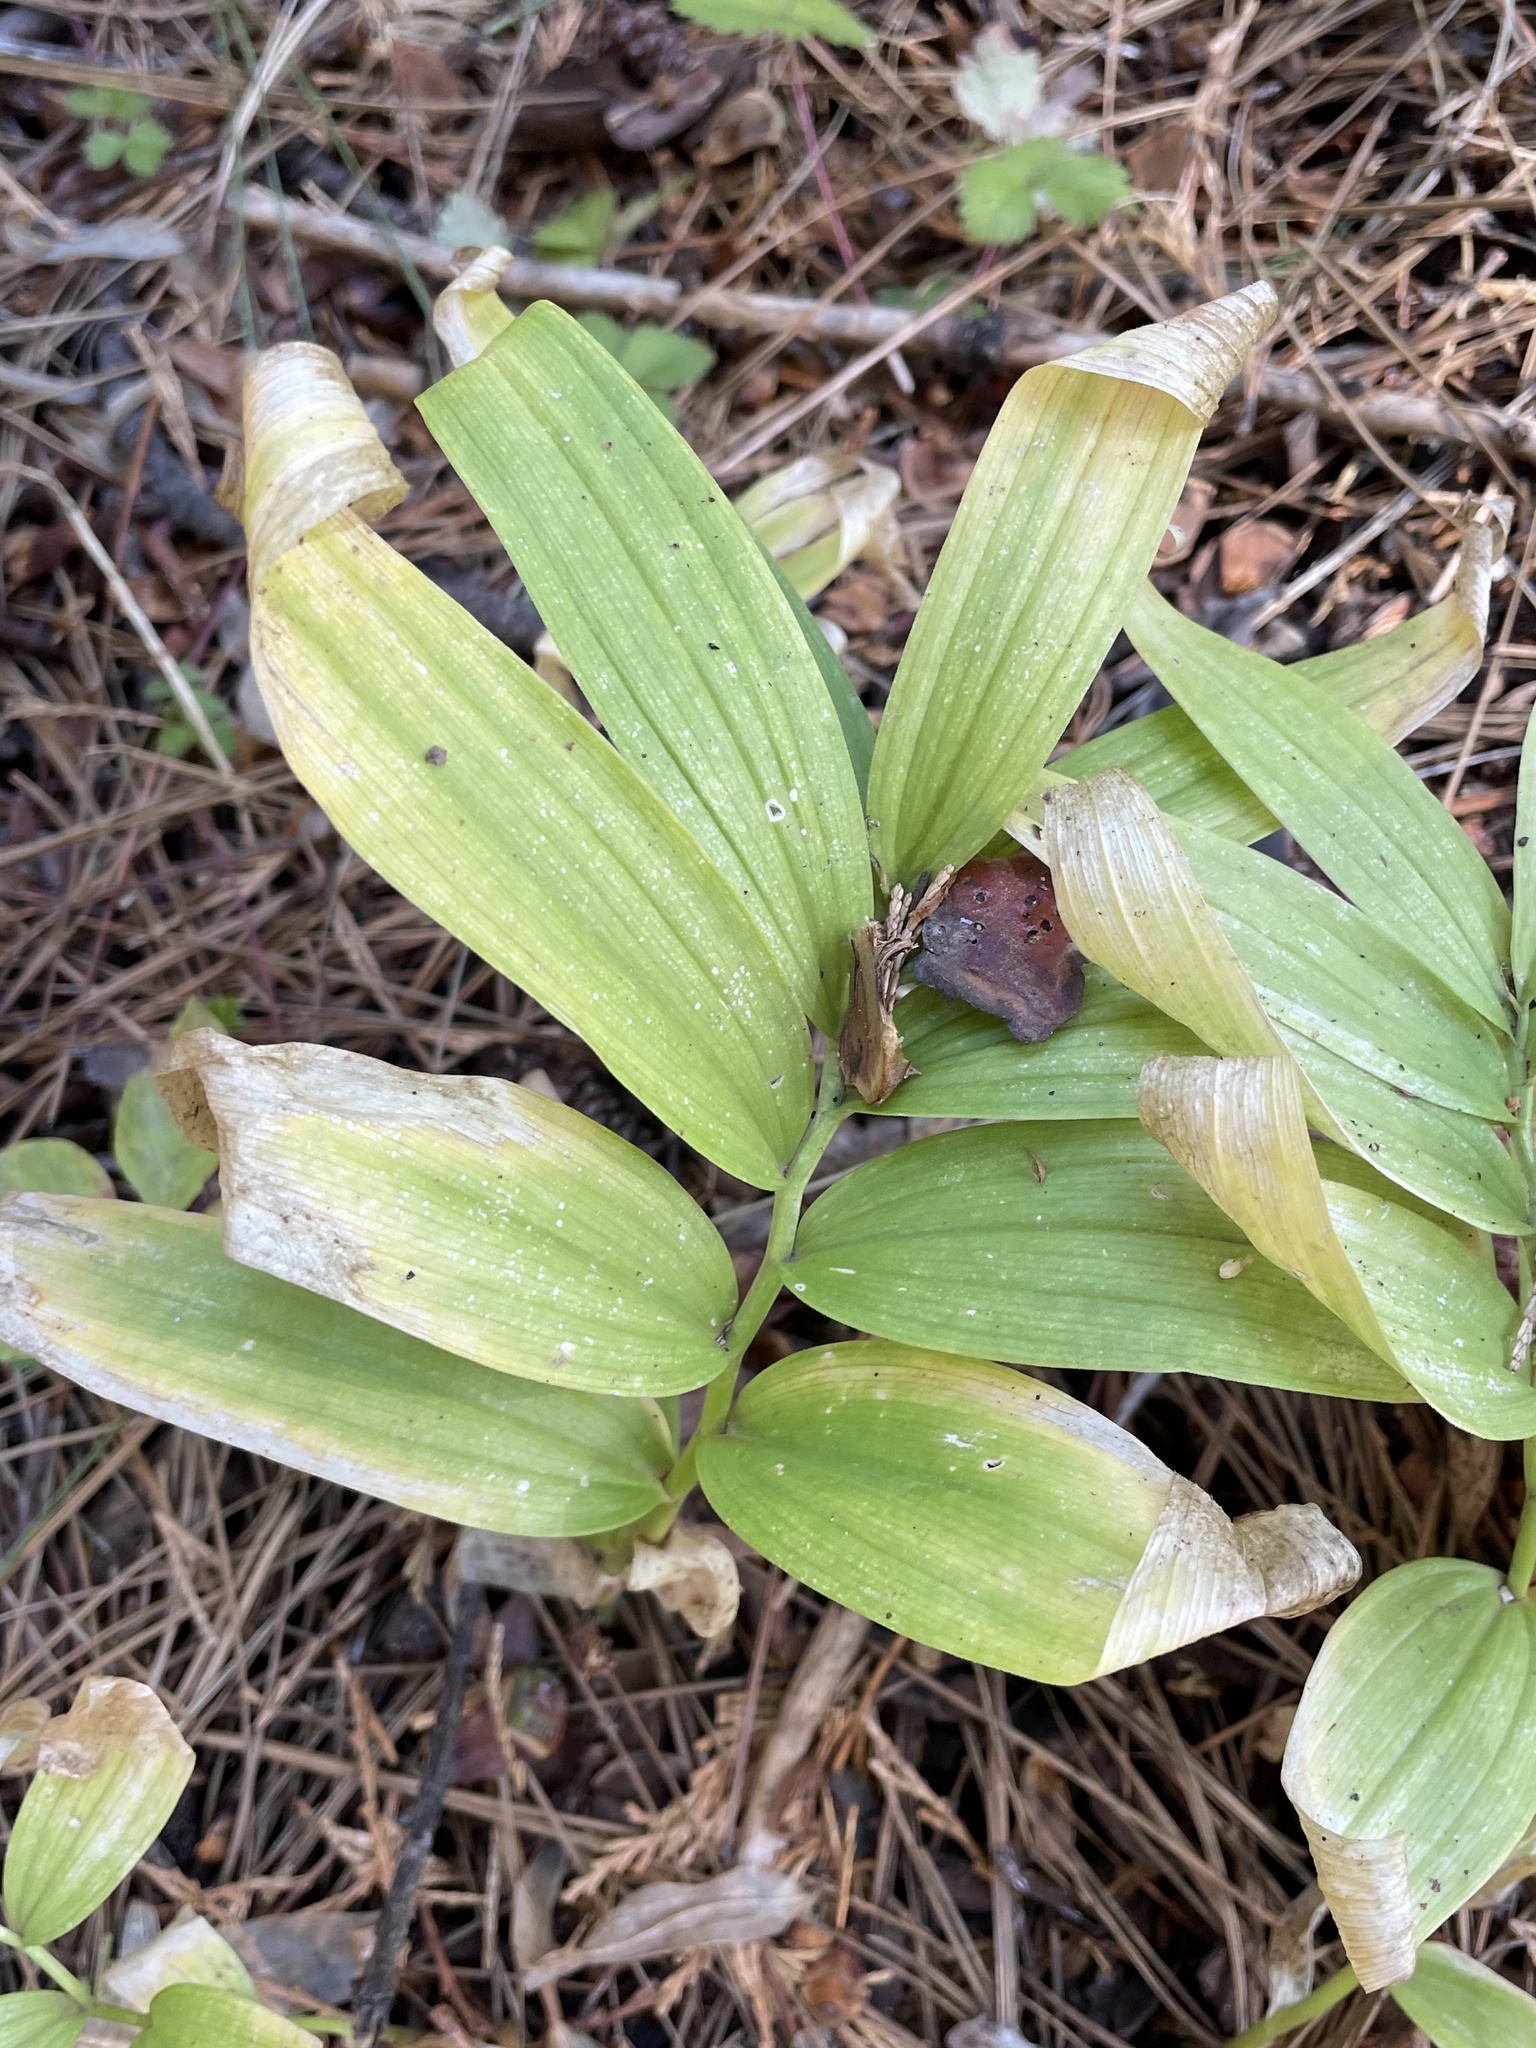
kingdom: Plantae
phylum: Tracheophyta
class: Liliopsida
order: Asparagales
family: Asparagaceae
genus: Maianthemum
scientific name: Maianthemum stellatum
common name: Little false solomon's seal
